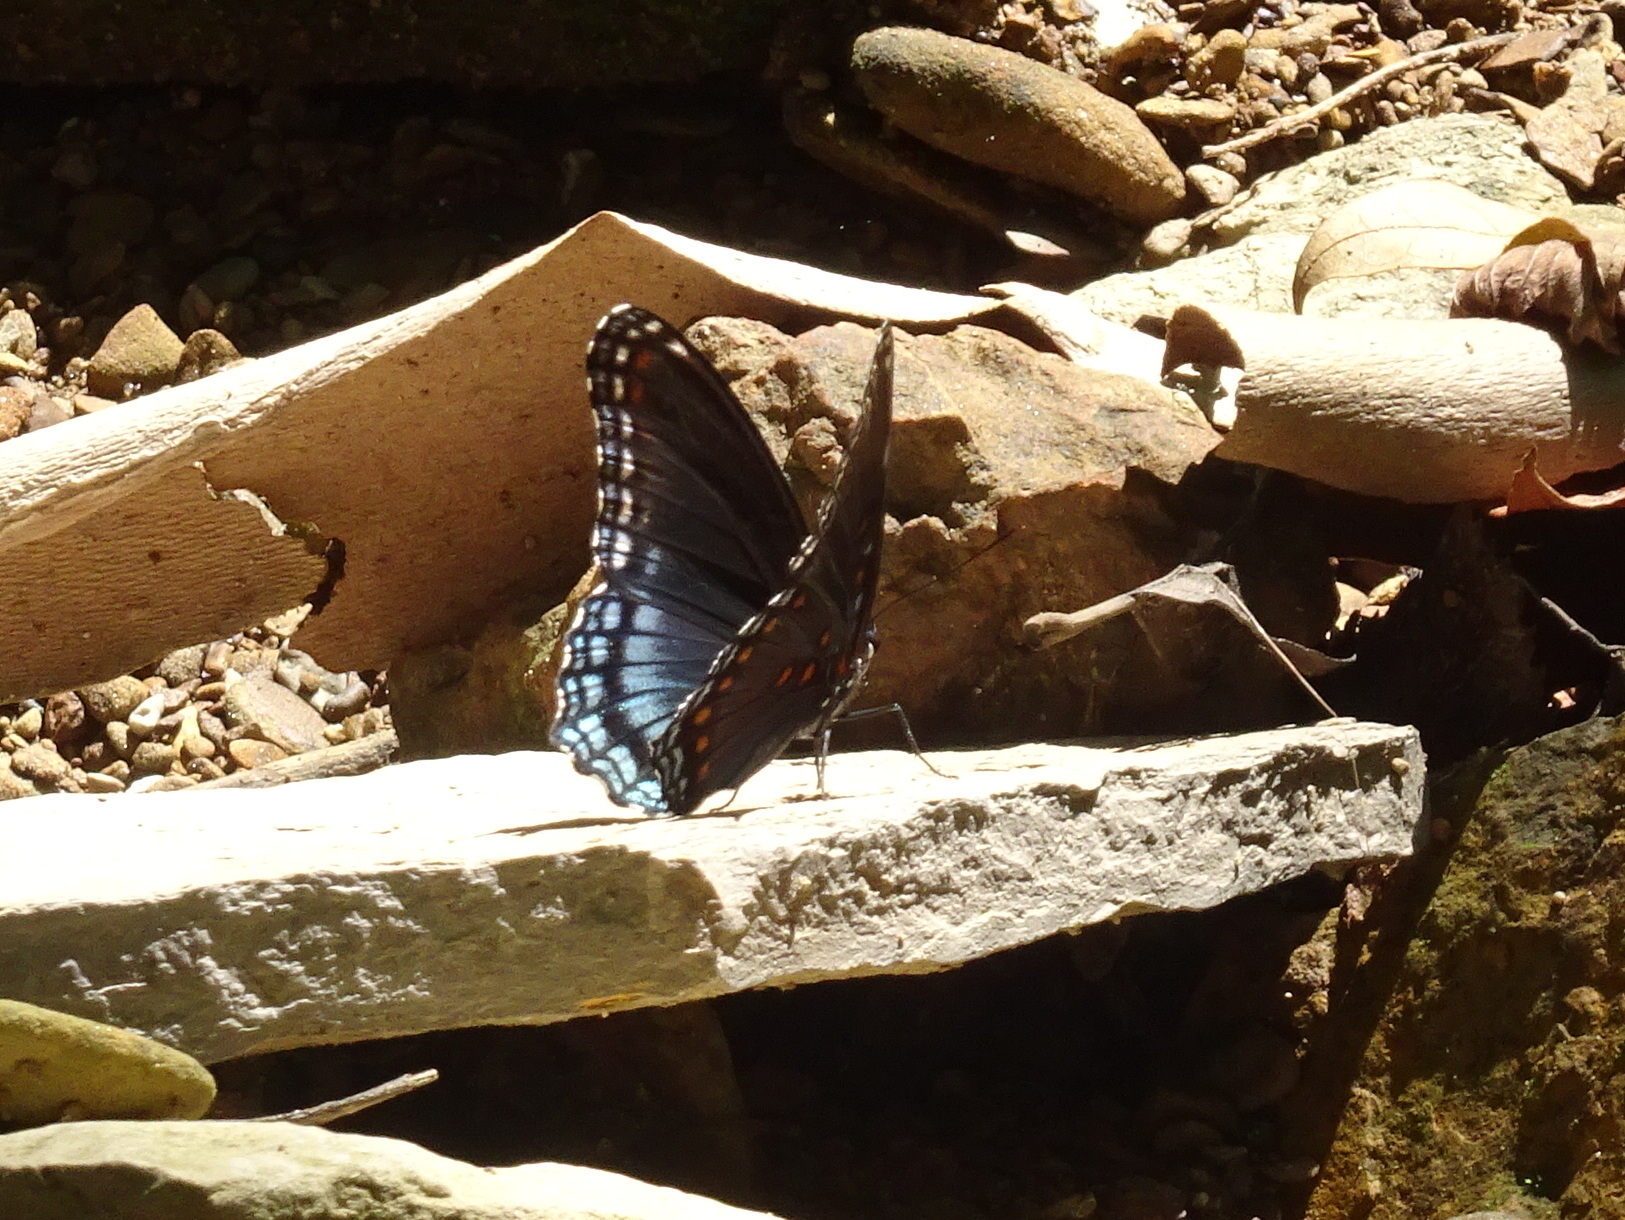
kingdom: Animalia
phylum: Arthropoda
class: Insecta
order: Lepidoptera
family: Nymphalidae
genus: Limenitis
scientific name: Limenitis arthemis
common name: Red-spotted admiral
